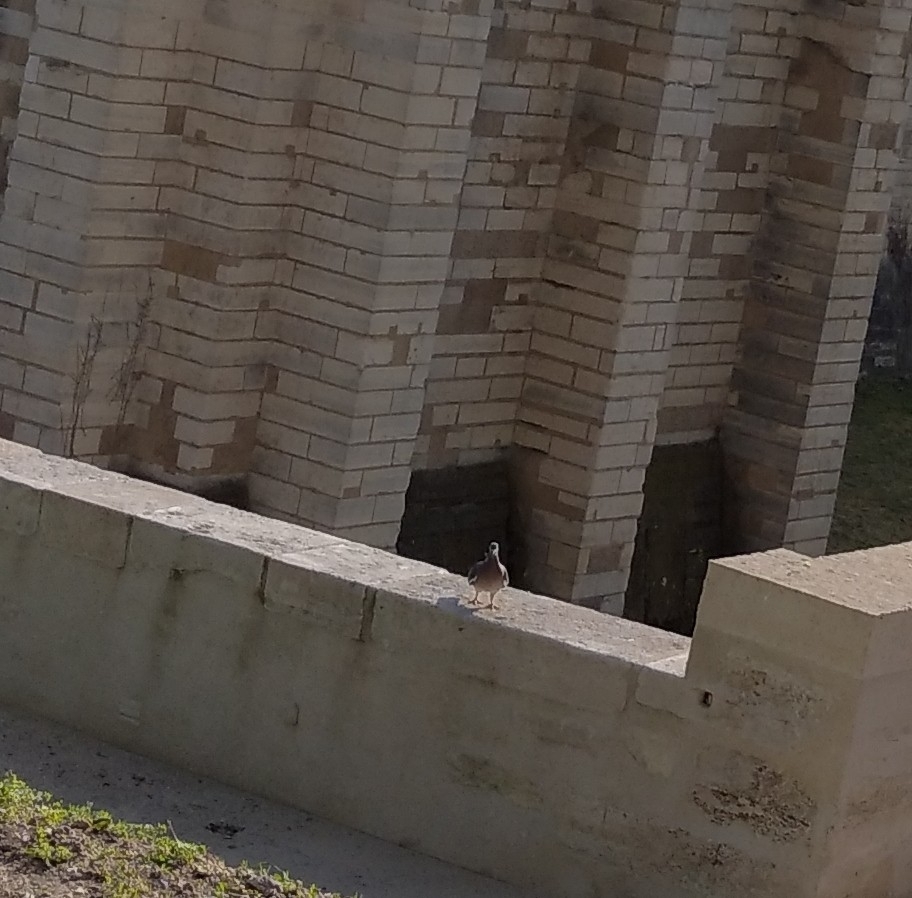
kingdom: Animalia
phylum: Chordata
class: Aves
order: Columbiformes
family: Columbidae
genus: Columba
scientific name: Columba palumbus
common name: Common wood pigeon
